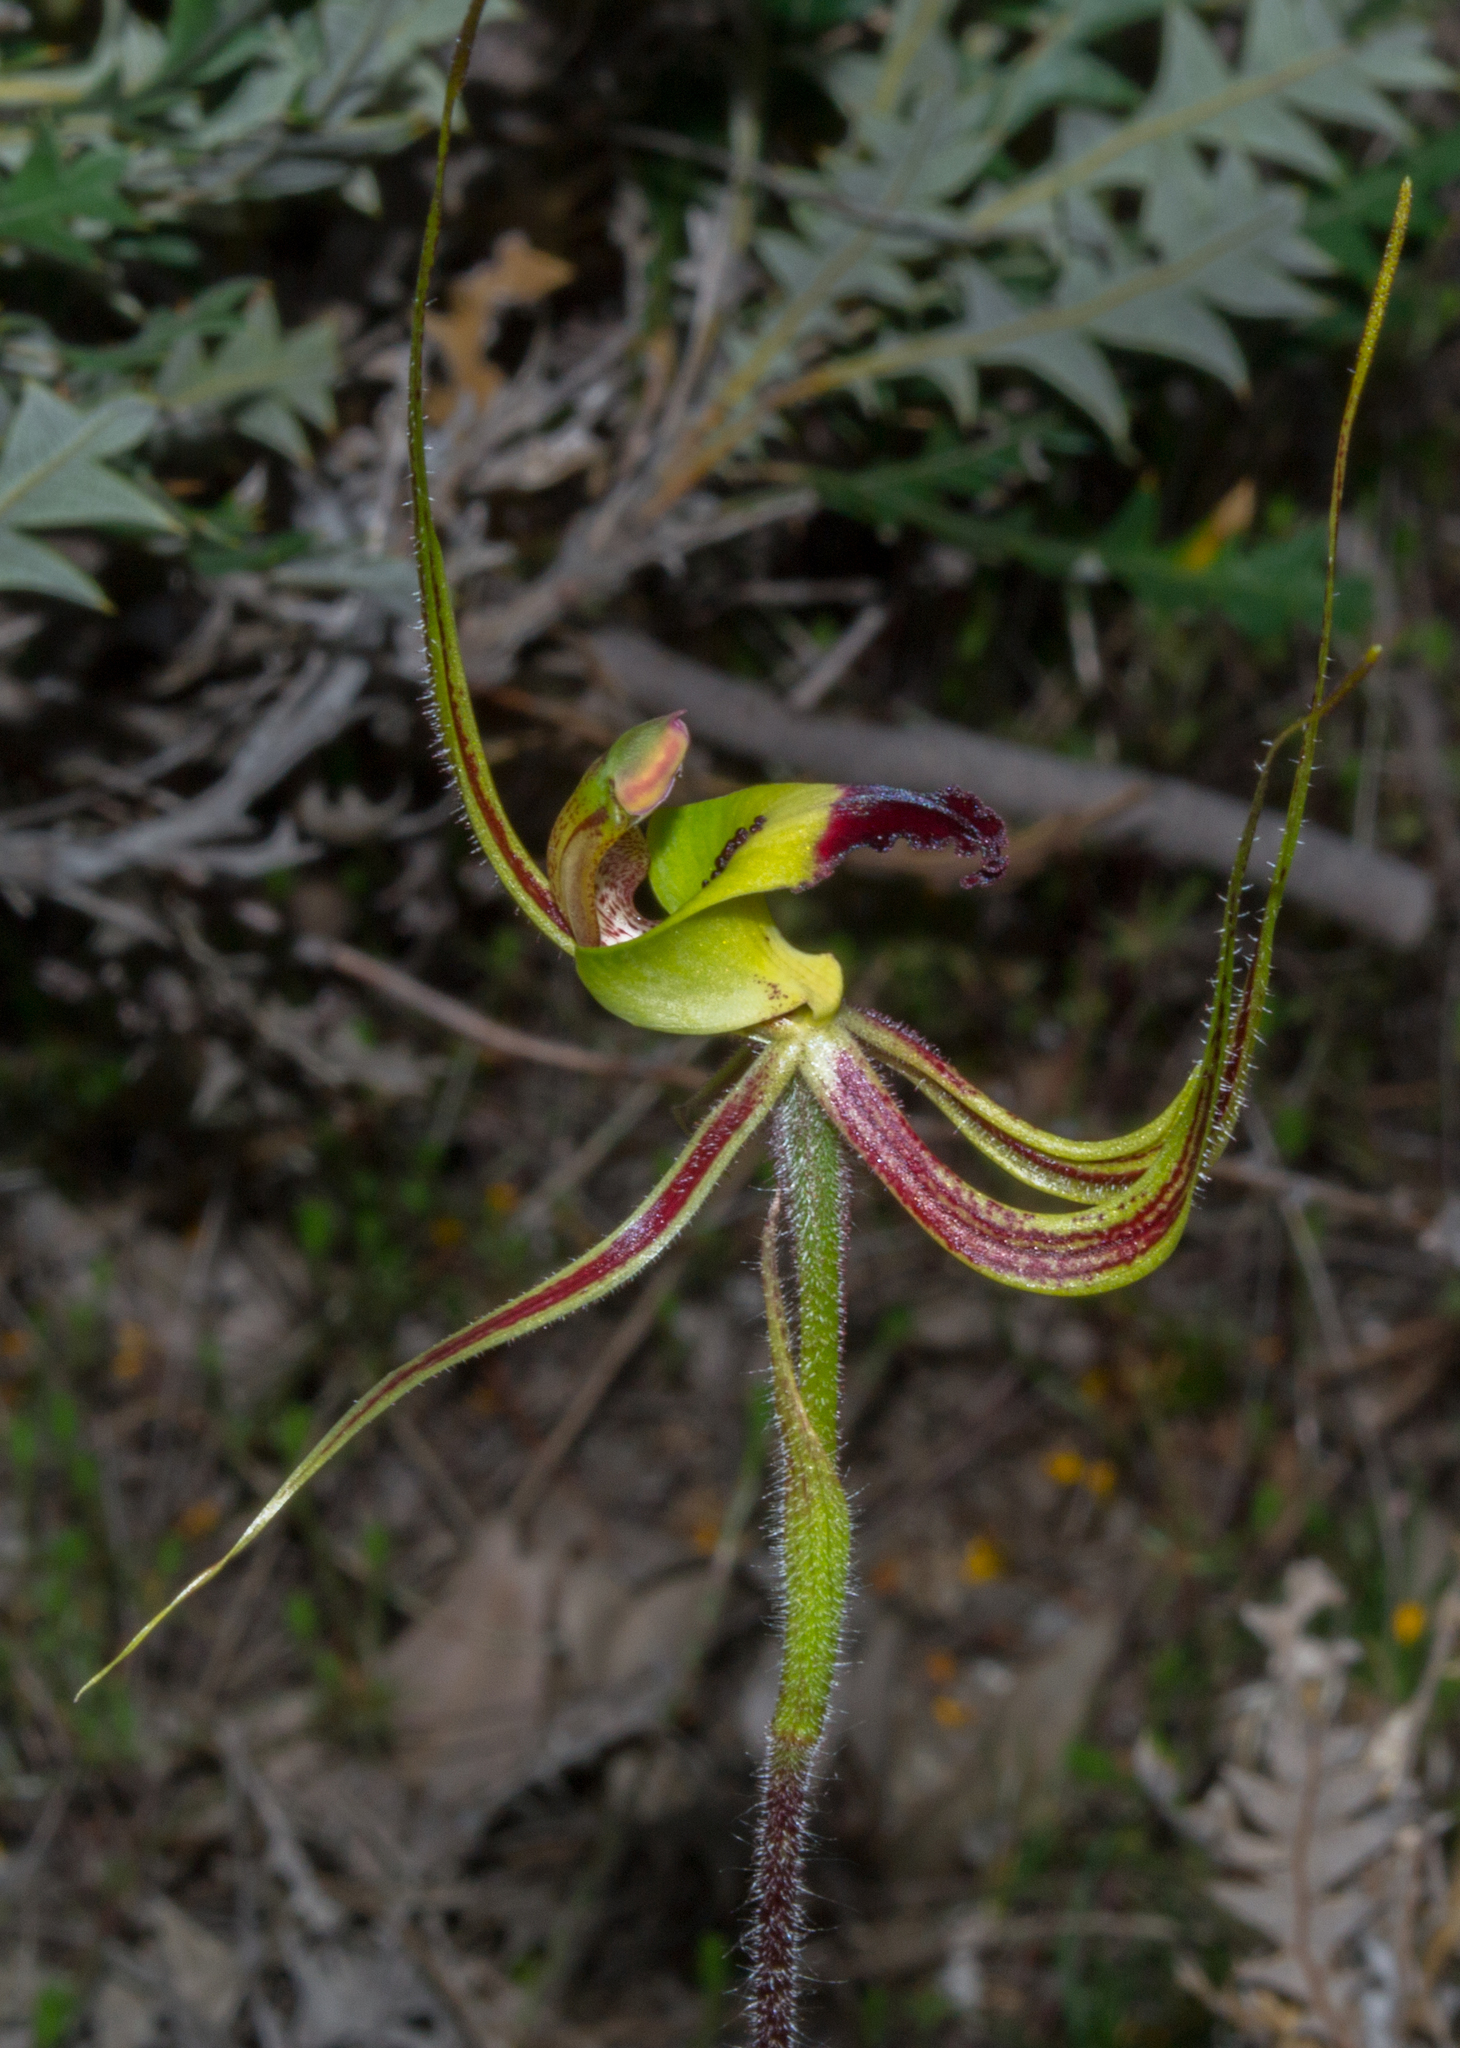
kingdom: Plantae
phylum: Tracheophyta
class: Liliopsida
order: Asparagales
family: Orchidaceae
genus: Caladenia
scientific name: Caladenia integra
